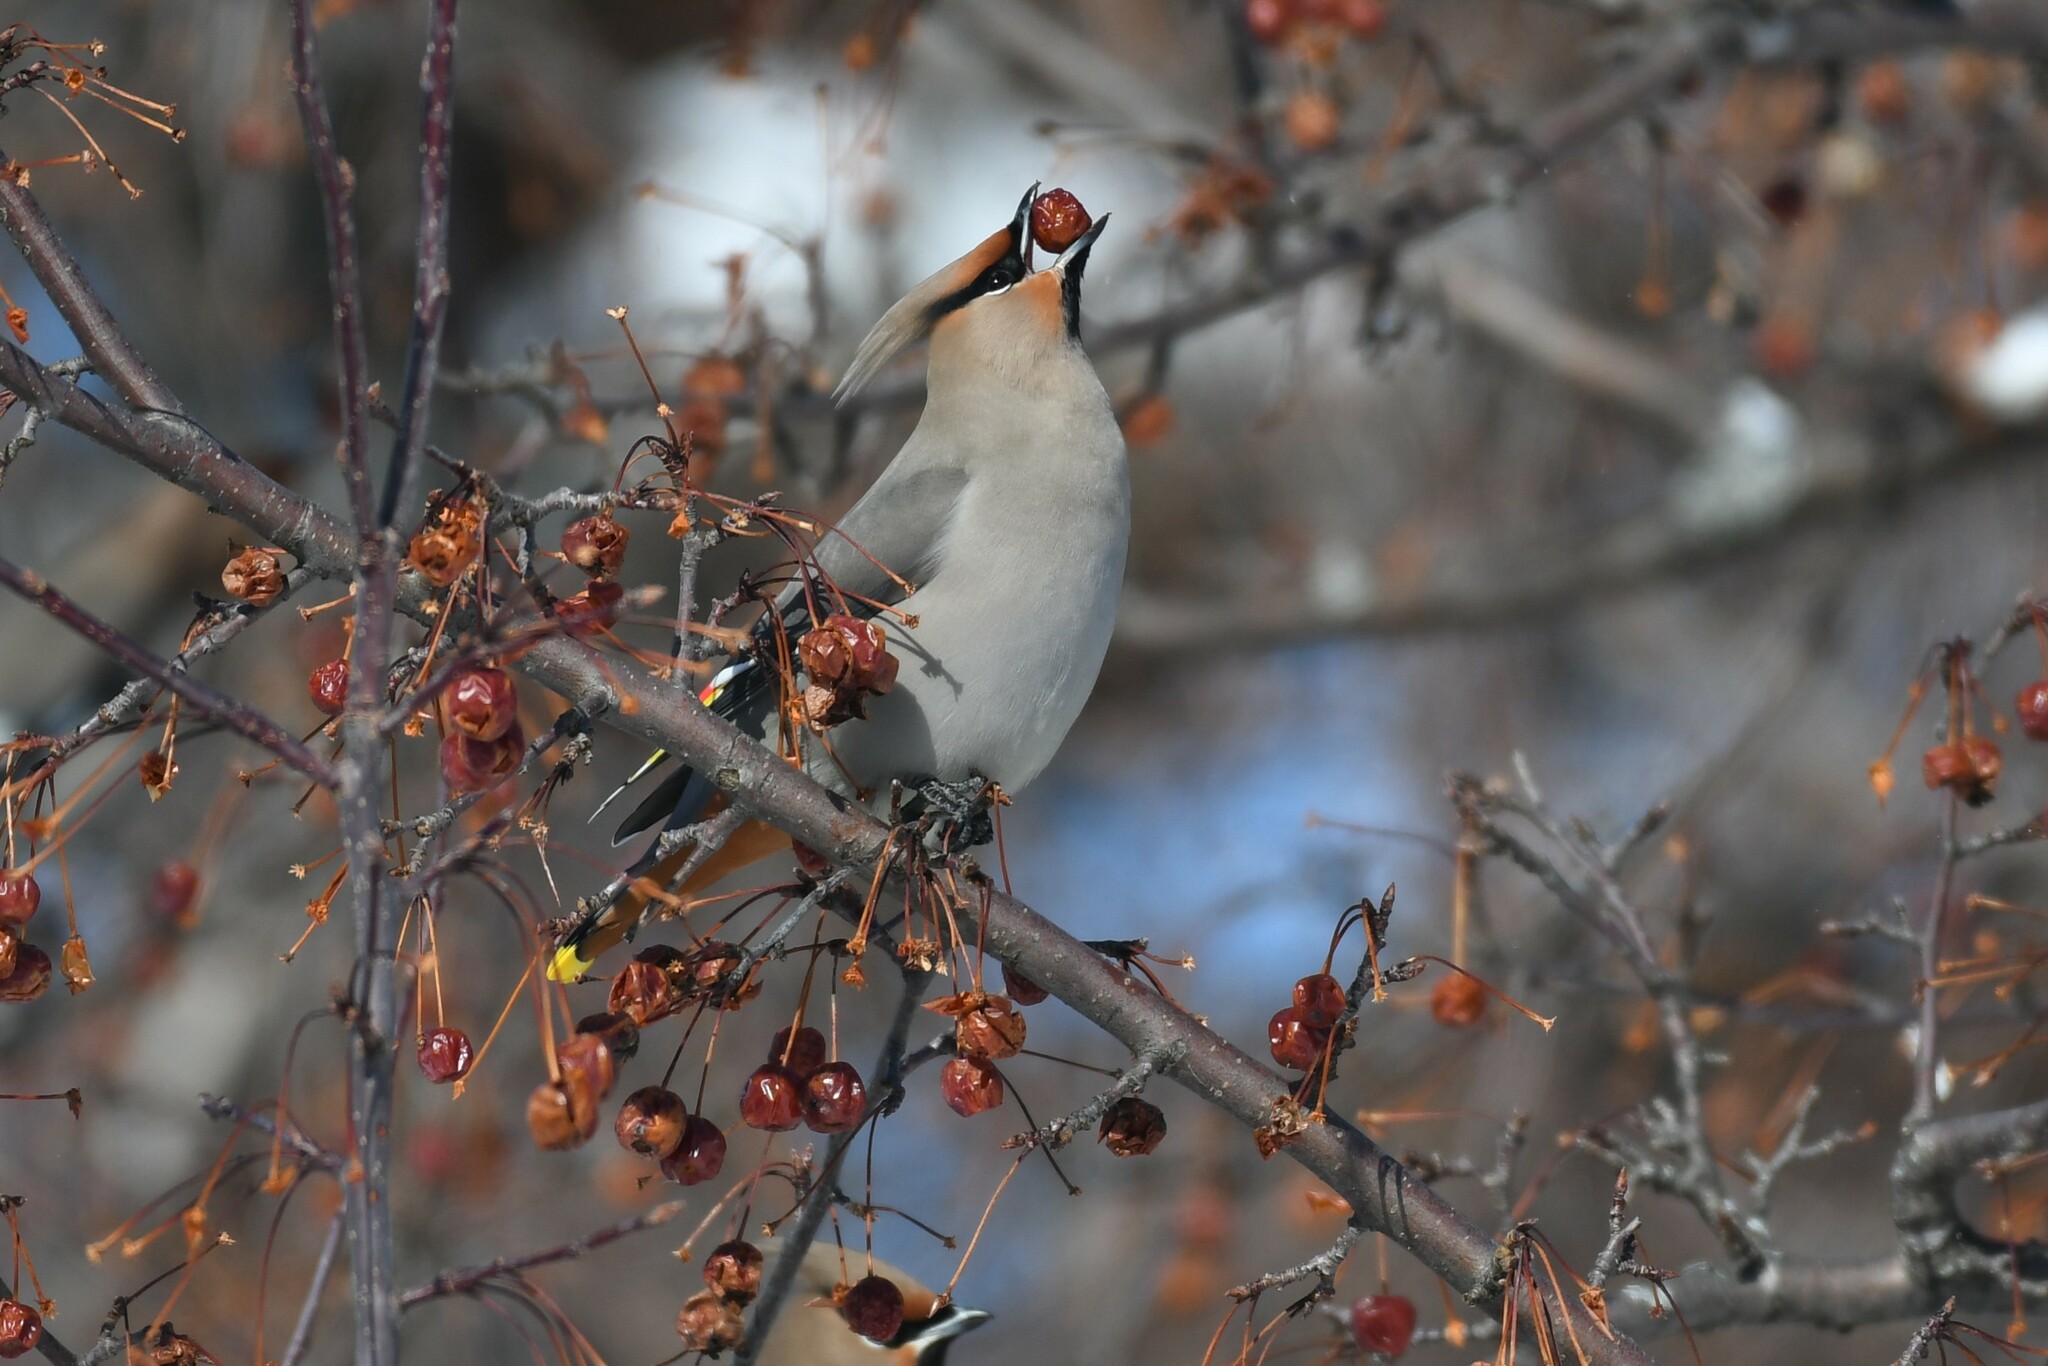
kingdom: Animalia
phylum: Chordata
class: Aves
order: Passeriformes
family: Bombycillidae
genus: Bombycilla
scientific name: Bombycilla garrulus
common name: Bohemian waxwing
